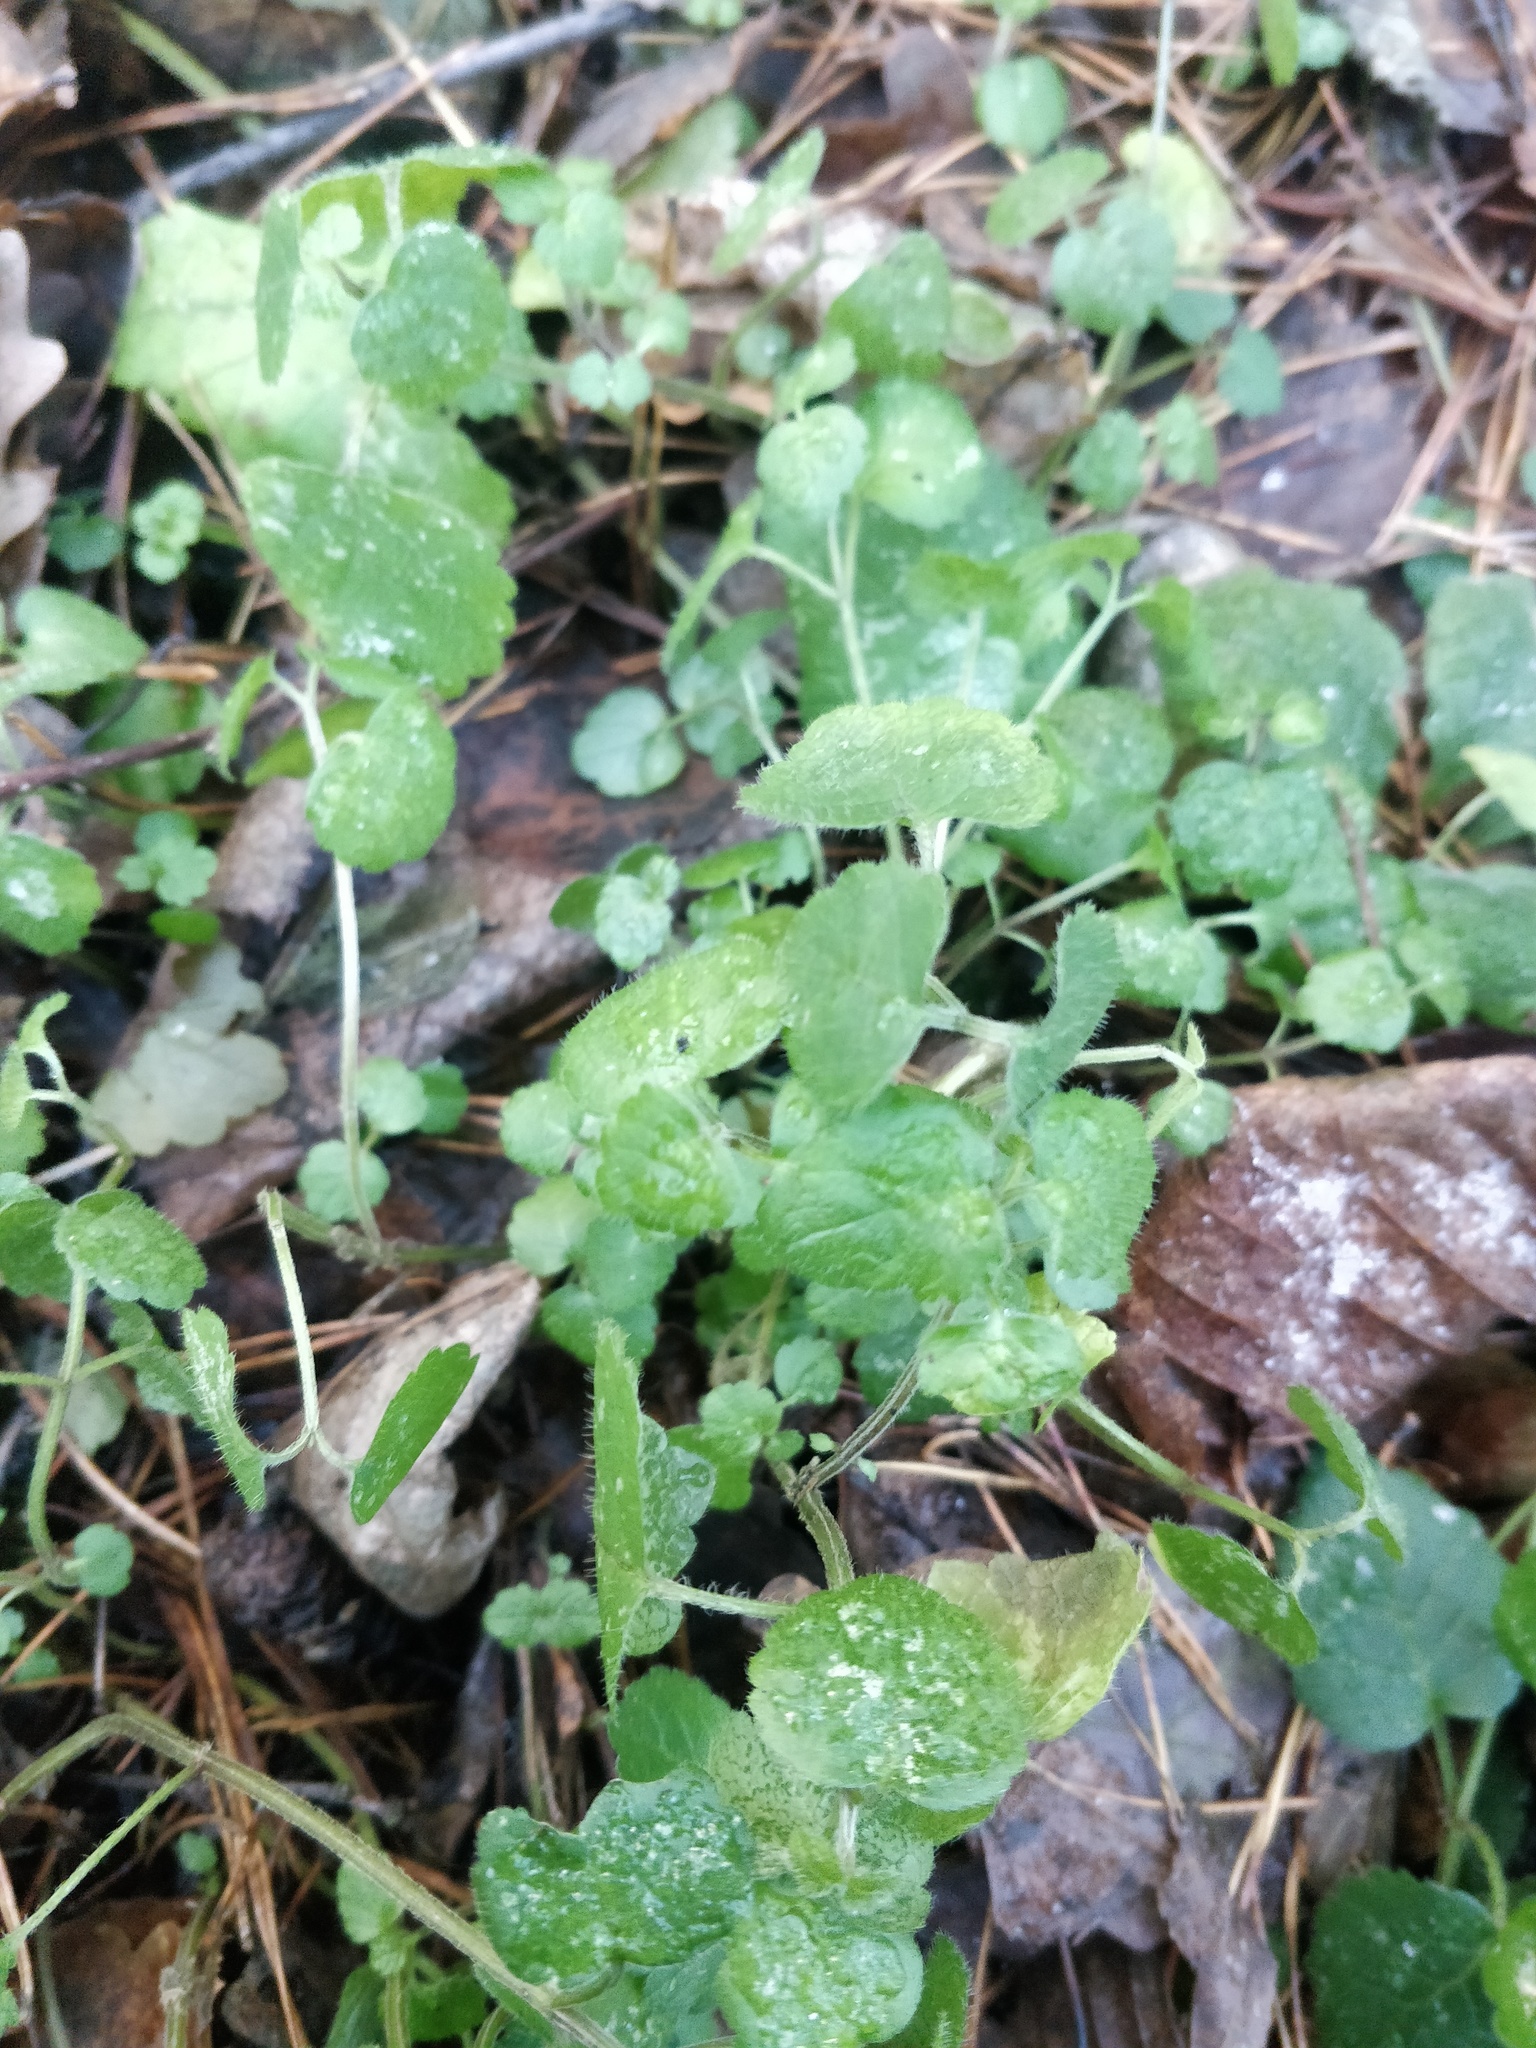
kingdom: Plantae
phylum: Tracheophyta
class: Magnoliopsida
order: Lamiales
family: Plantaginaceae
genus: Veronica
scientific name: Veronica persica
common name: Common field-speedwell
